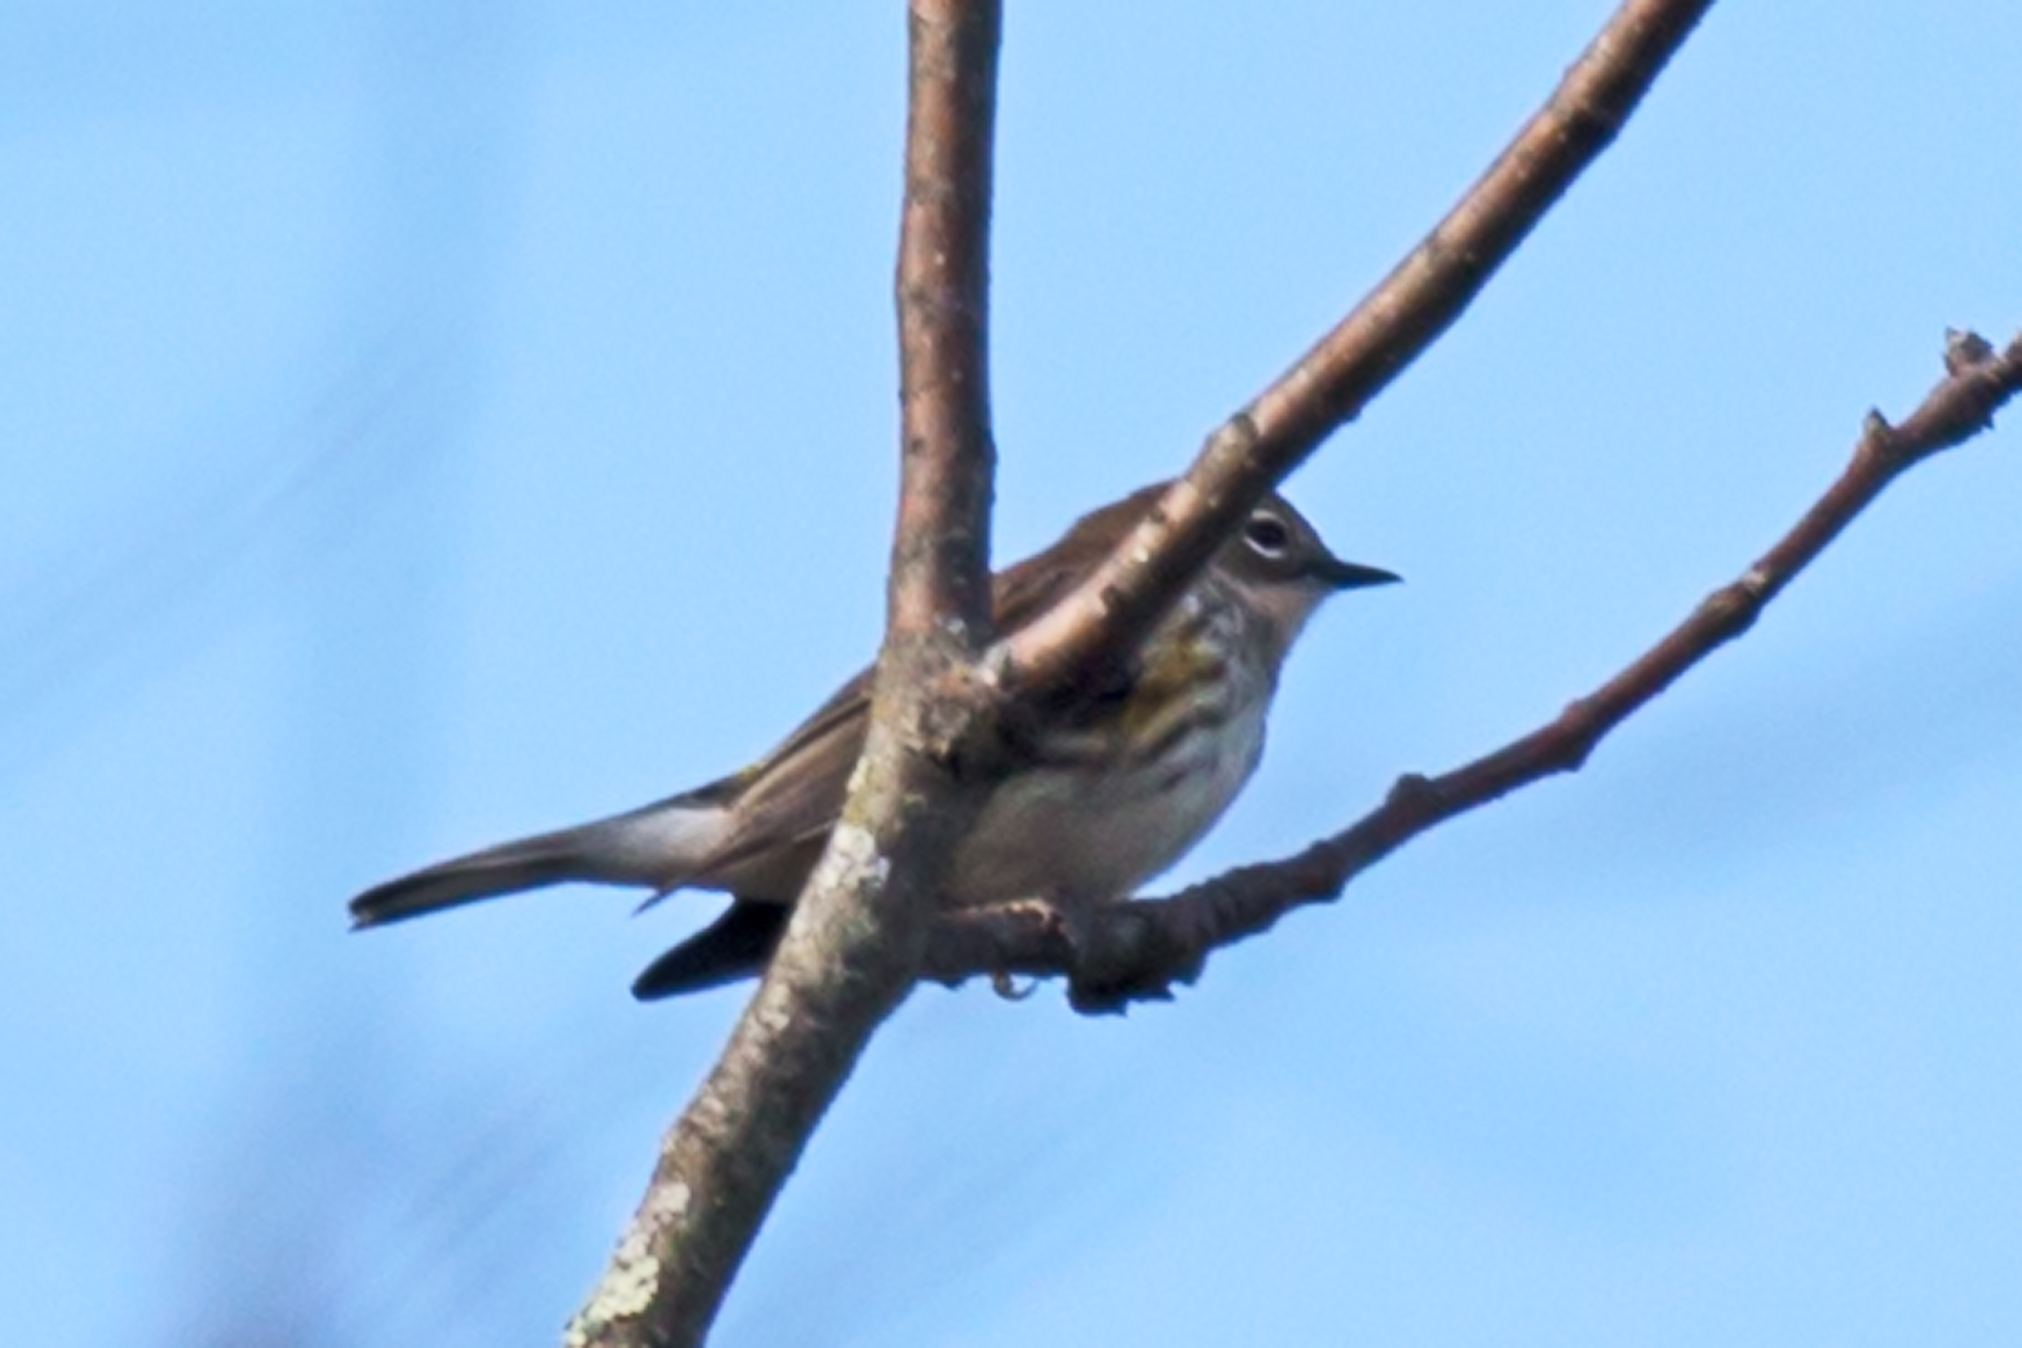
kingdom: Animalia
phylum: Chordata
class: Aves
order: Passeriformes
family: Parulidae
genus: Setophaga
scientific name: Setophaga coronata
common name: Myrtle warbler
